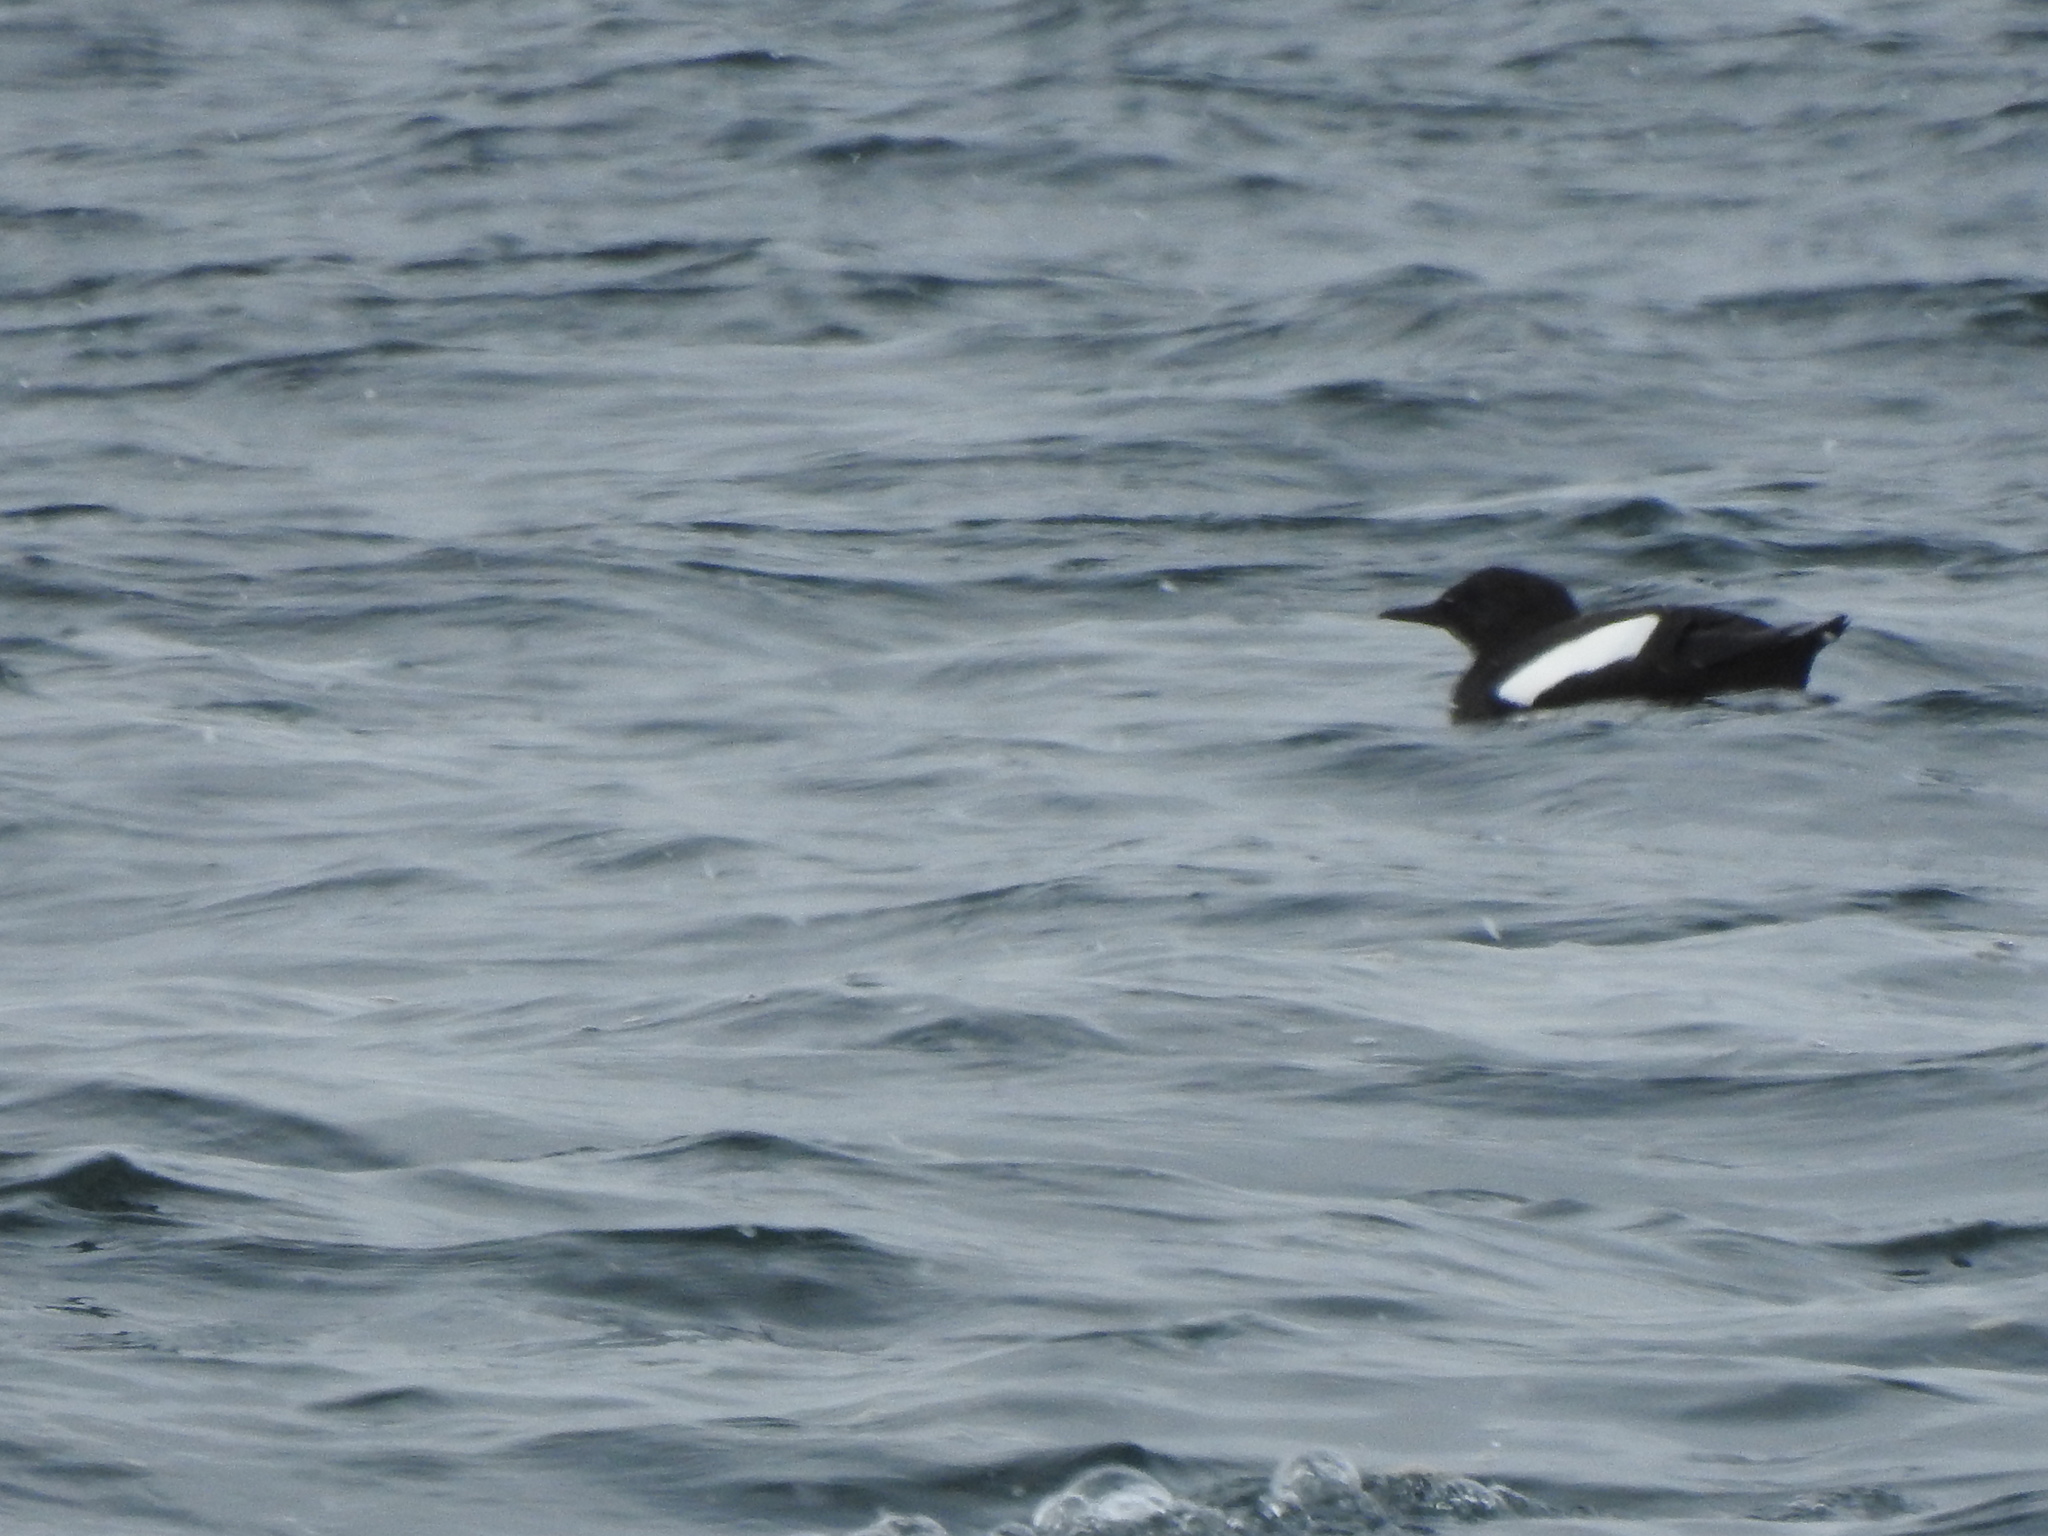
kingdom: Animalia
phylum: Chordata
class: Aves
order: Charadriiformes
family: Alcidae
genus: Cepphus
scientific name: Cepphus grylle
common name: Black guillemot
